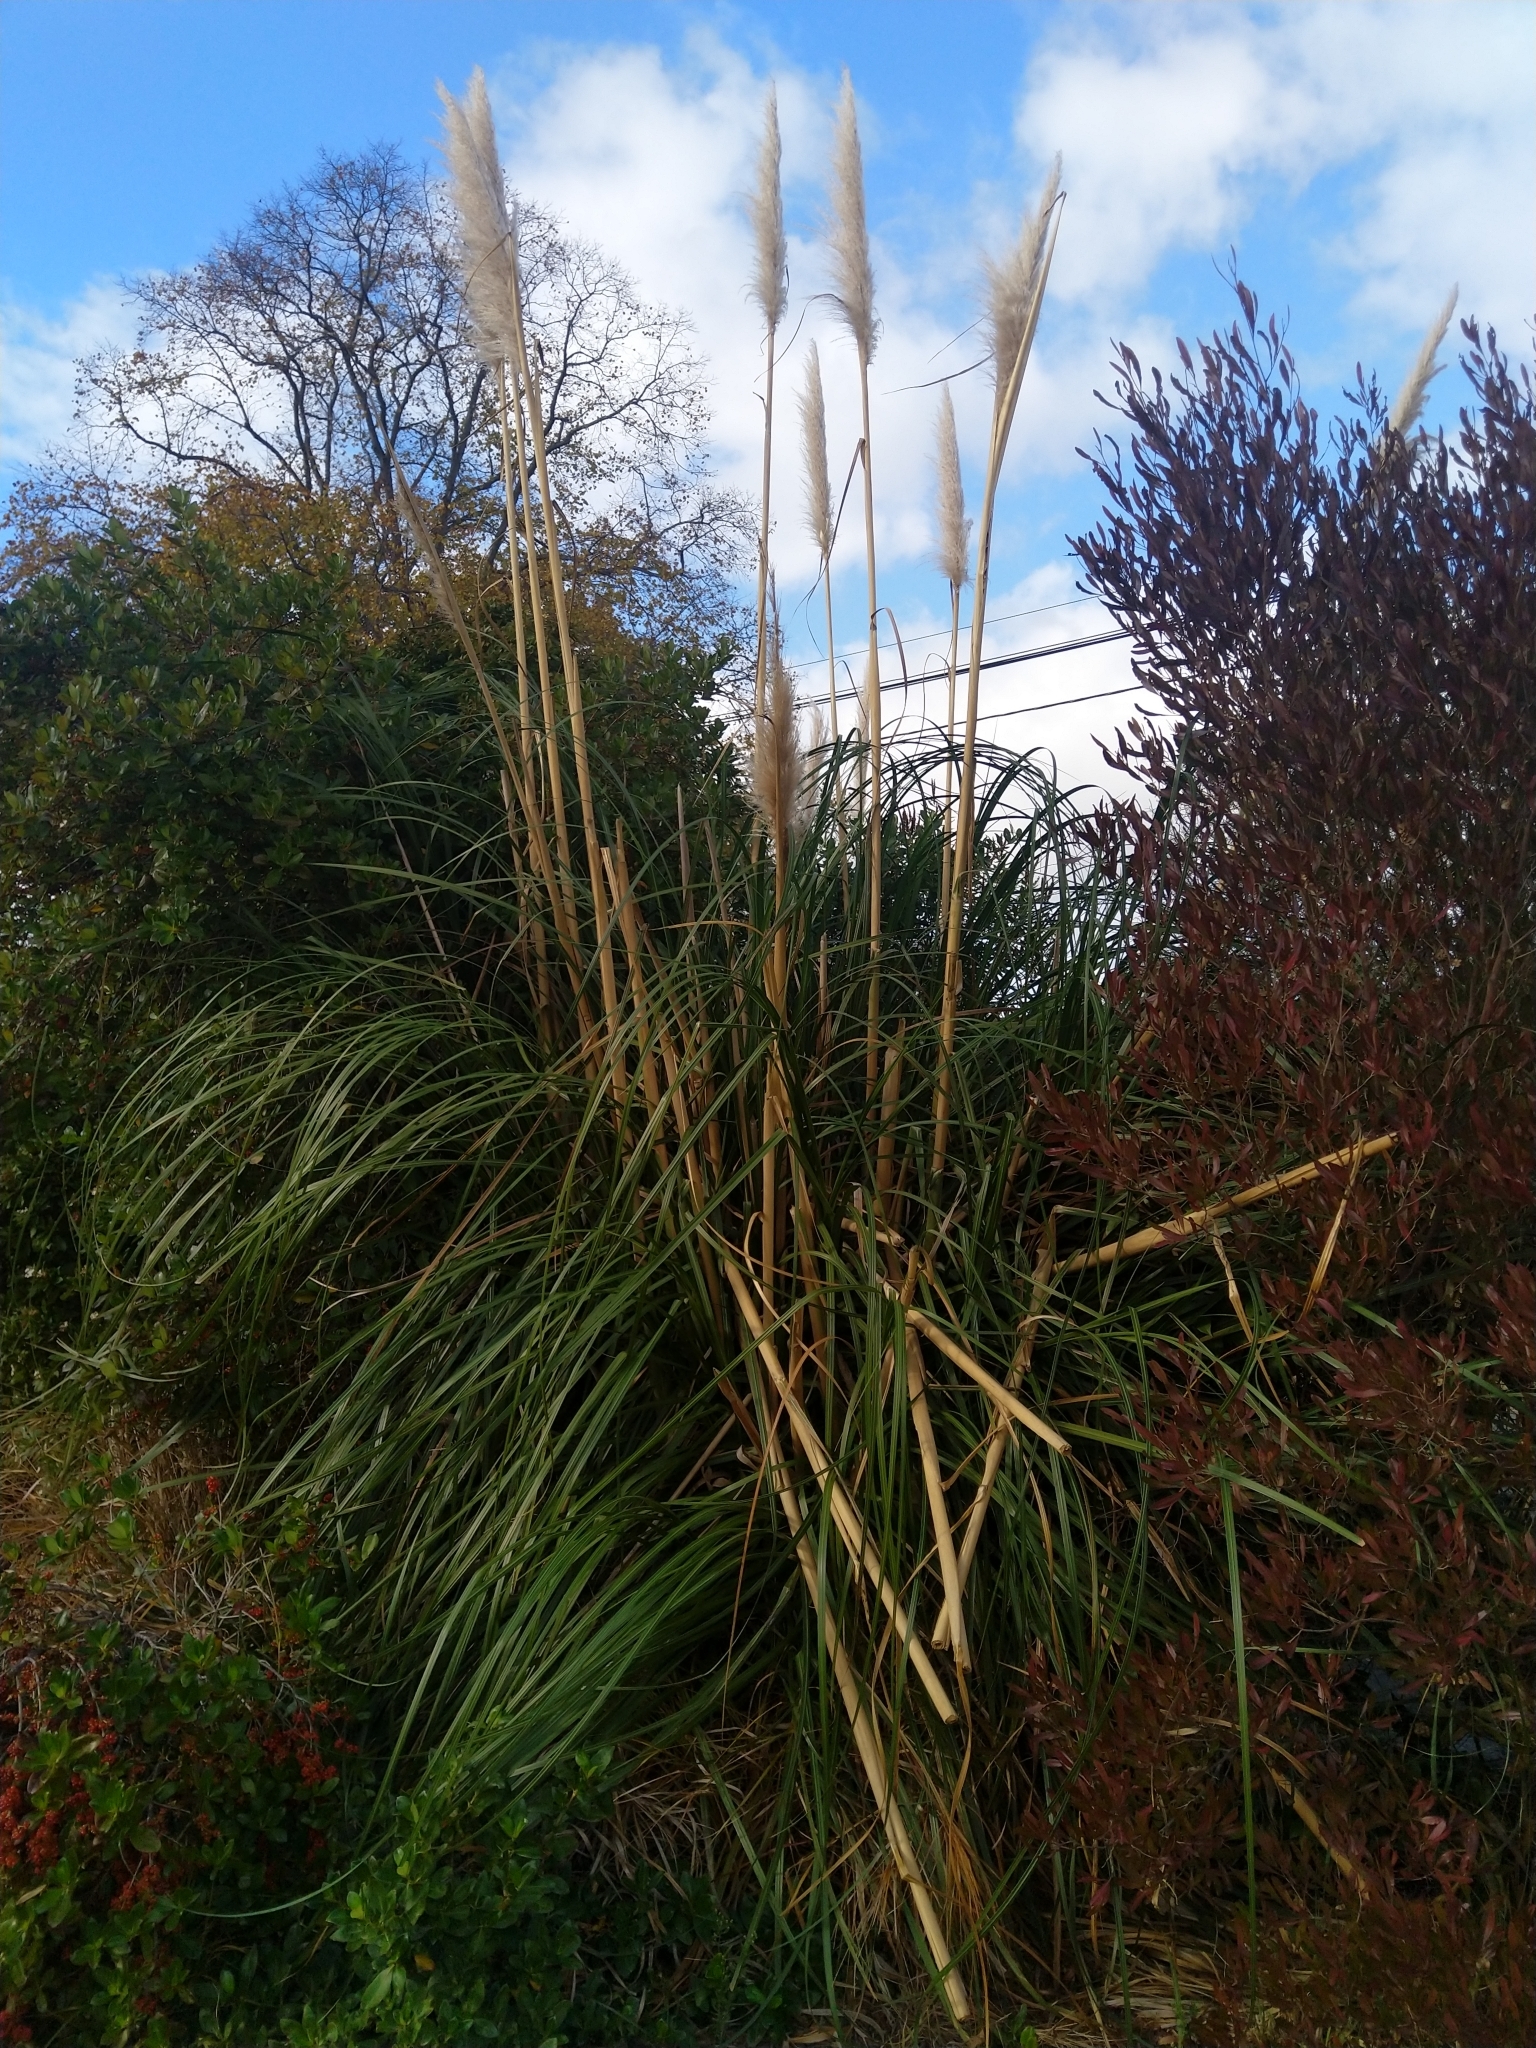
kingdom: Plantae
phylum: Tracheophyta
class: Liliopsida
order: Poales
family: Poaceae
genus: Cortaderia
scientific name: Cortaderia jubata
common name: Purple pampas grass
